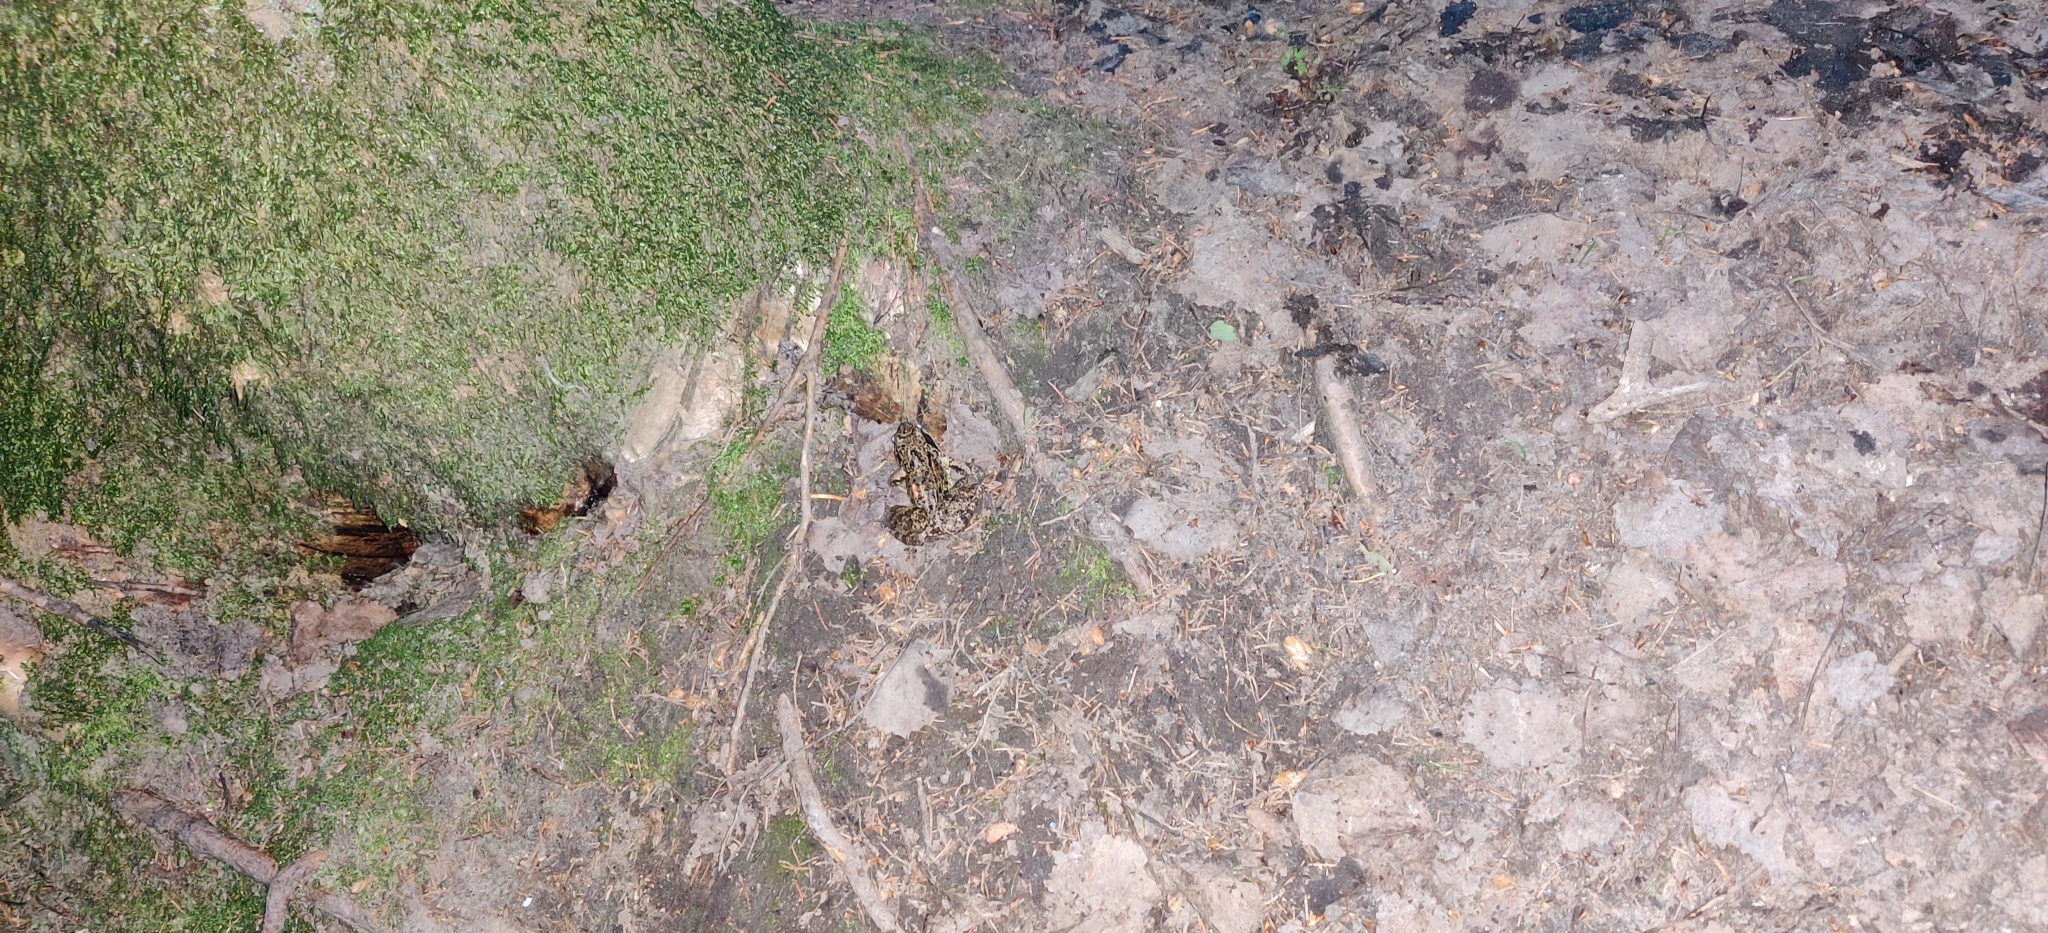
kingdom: Animalia
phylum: Chordata
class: Amphibia
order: Anura
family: Ranidae
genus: Rana
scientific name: Rana temporaria
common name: Common frog
